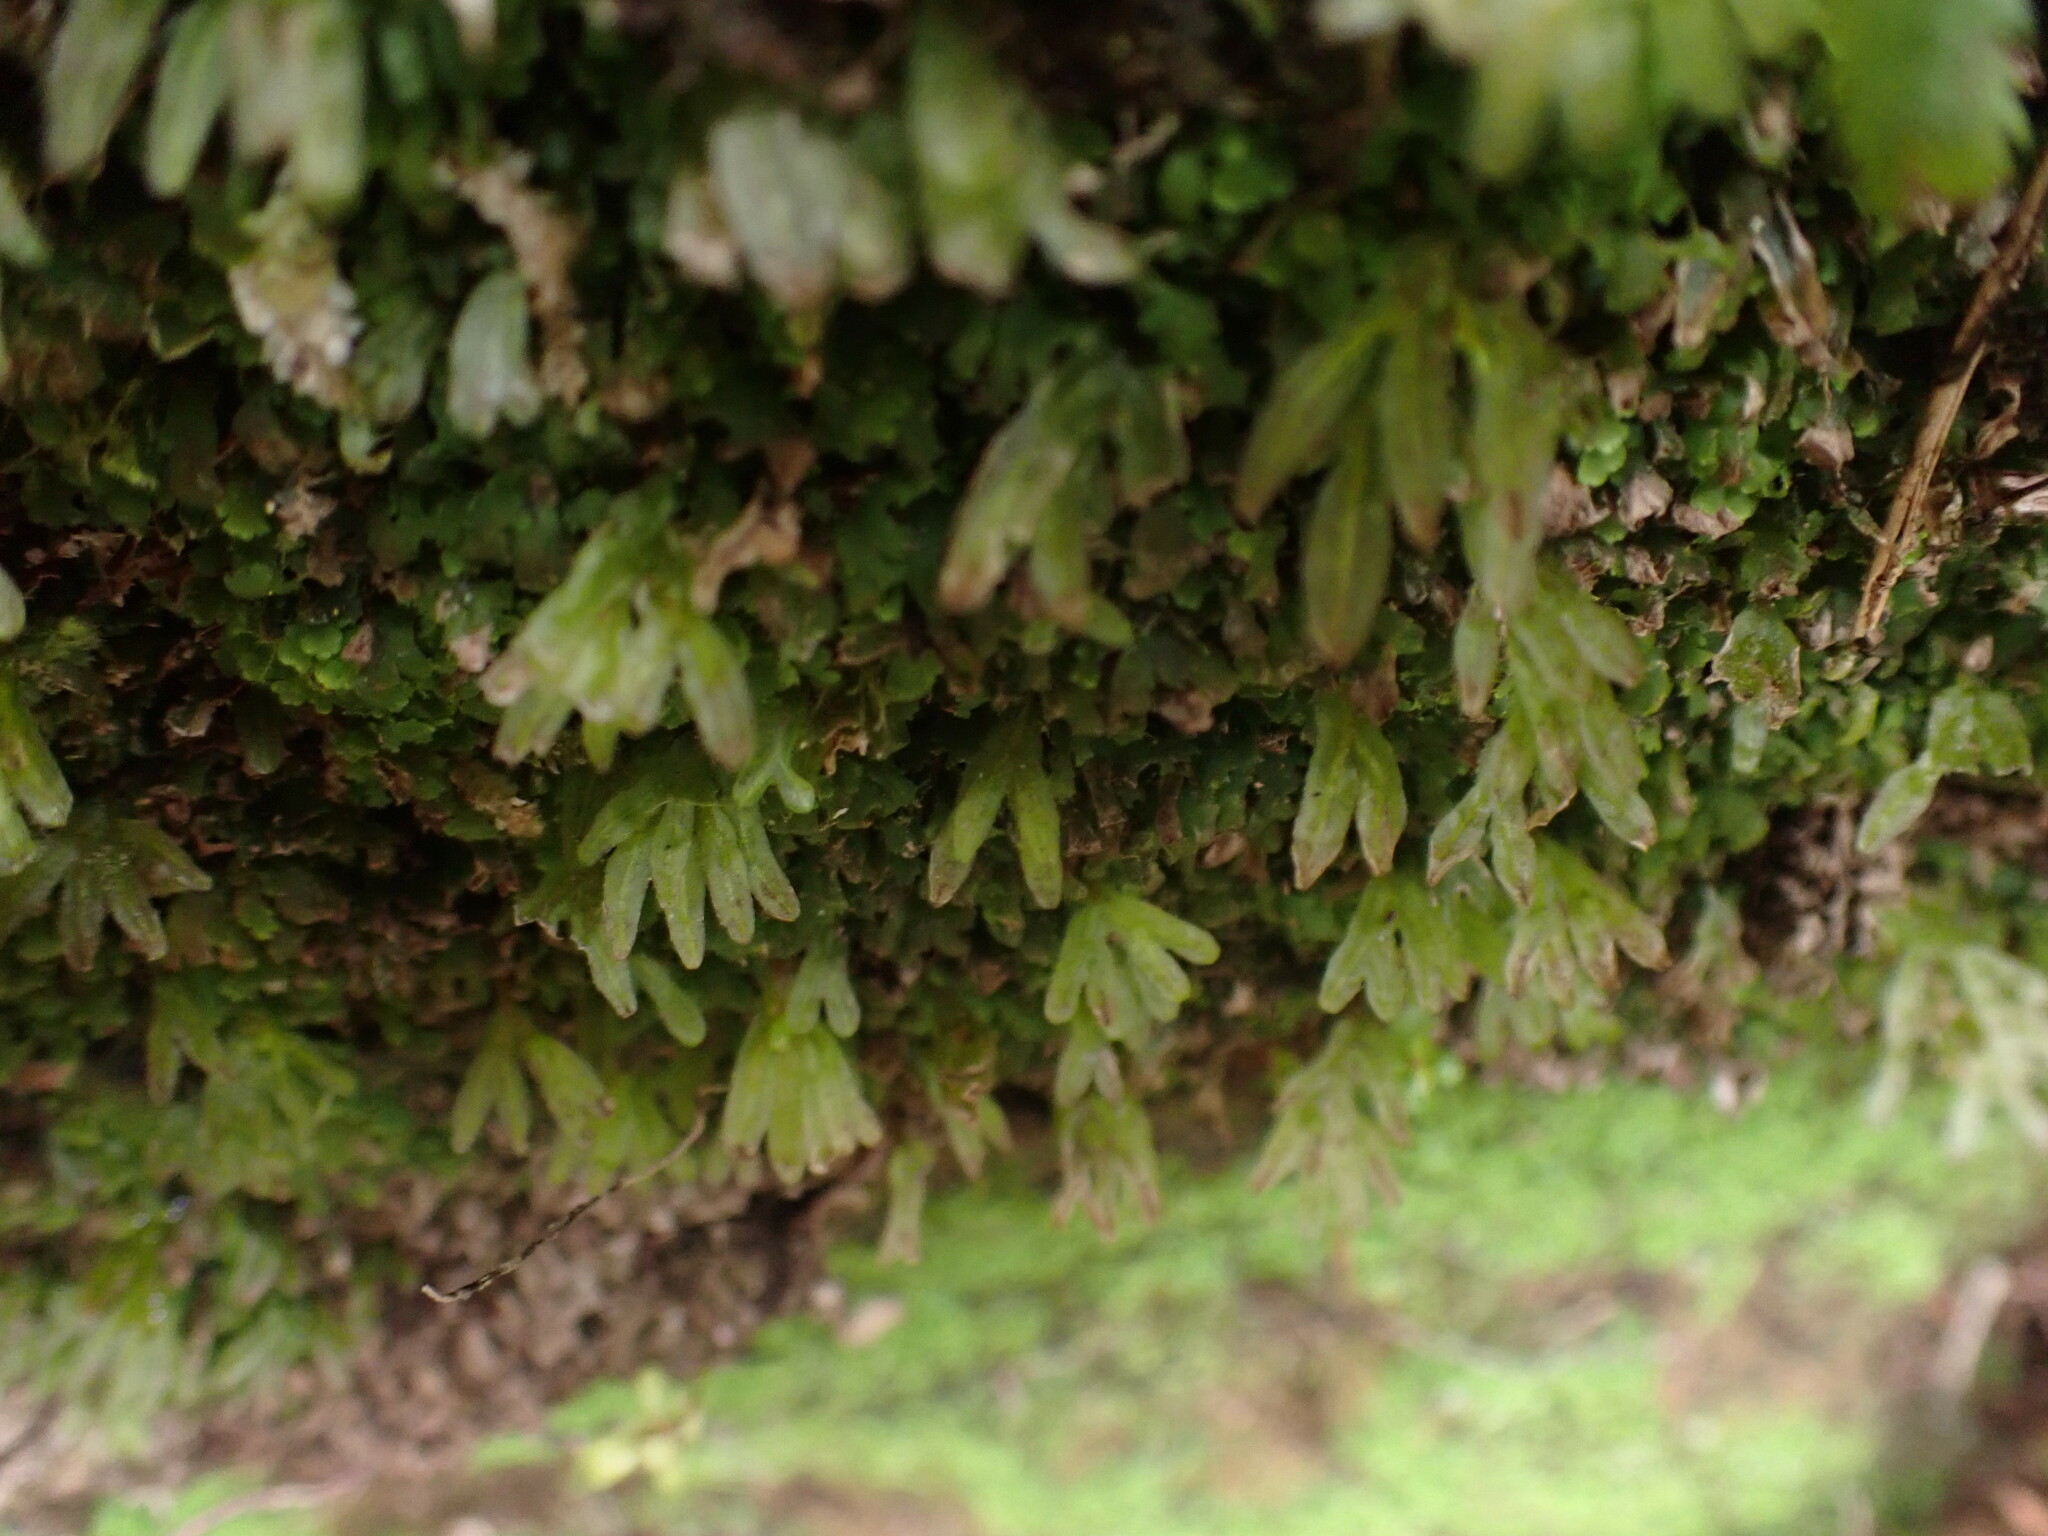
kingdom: Plantae
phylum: Marchantiophyta
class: Jungermanniopsida
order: Pallaviciniales
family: Pallaviciniaceae
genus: Symphyogyna
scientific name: Symphyogyna hymenophyllum
